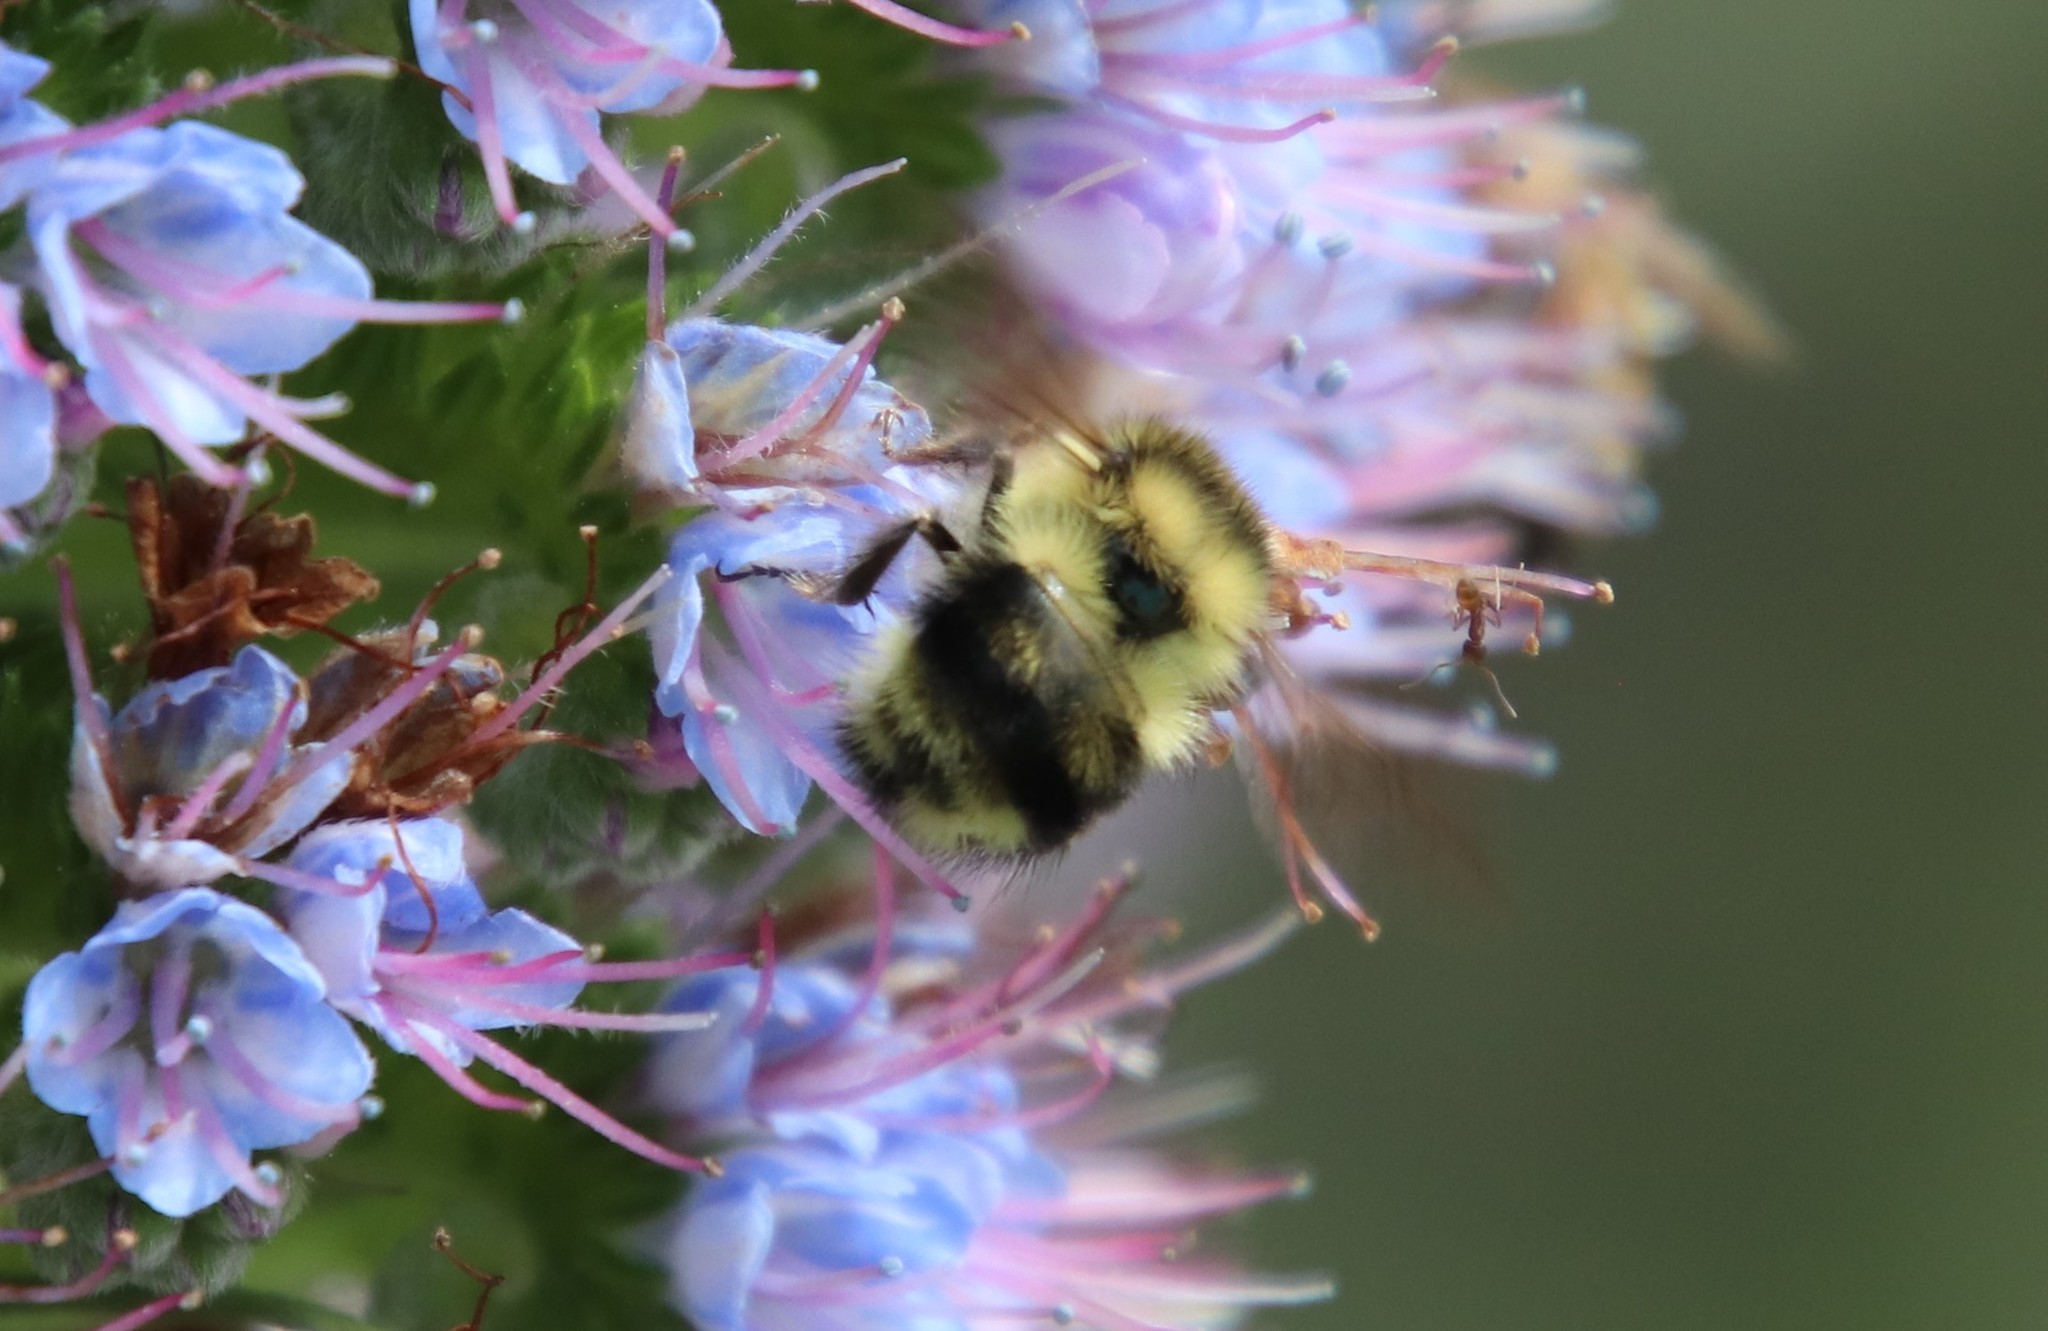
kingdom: Animalia
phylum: Arthropoda
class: Insecta
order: Hymenoptera
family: Apidae
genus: Bombus
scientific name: Bombus melanopygus
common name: Black tail bumble bee
